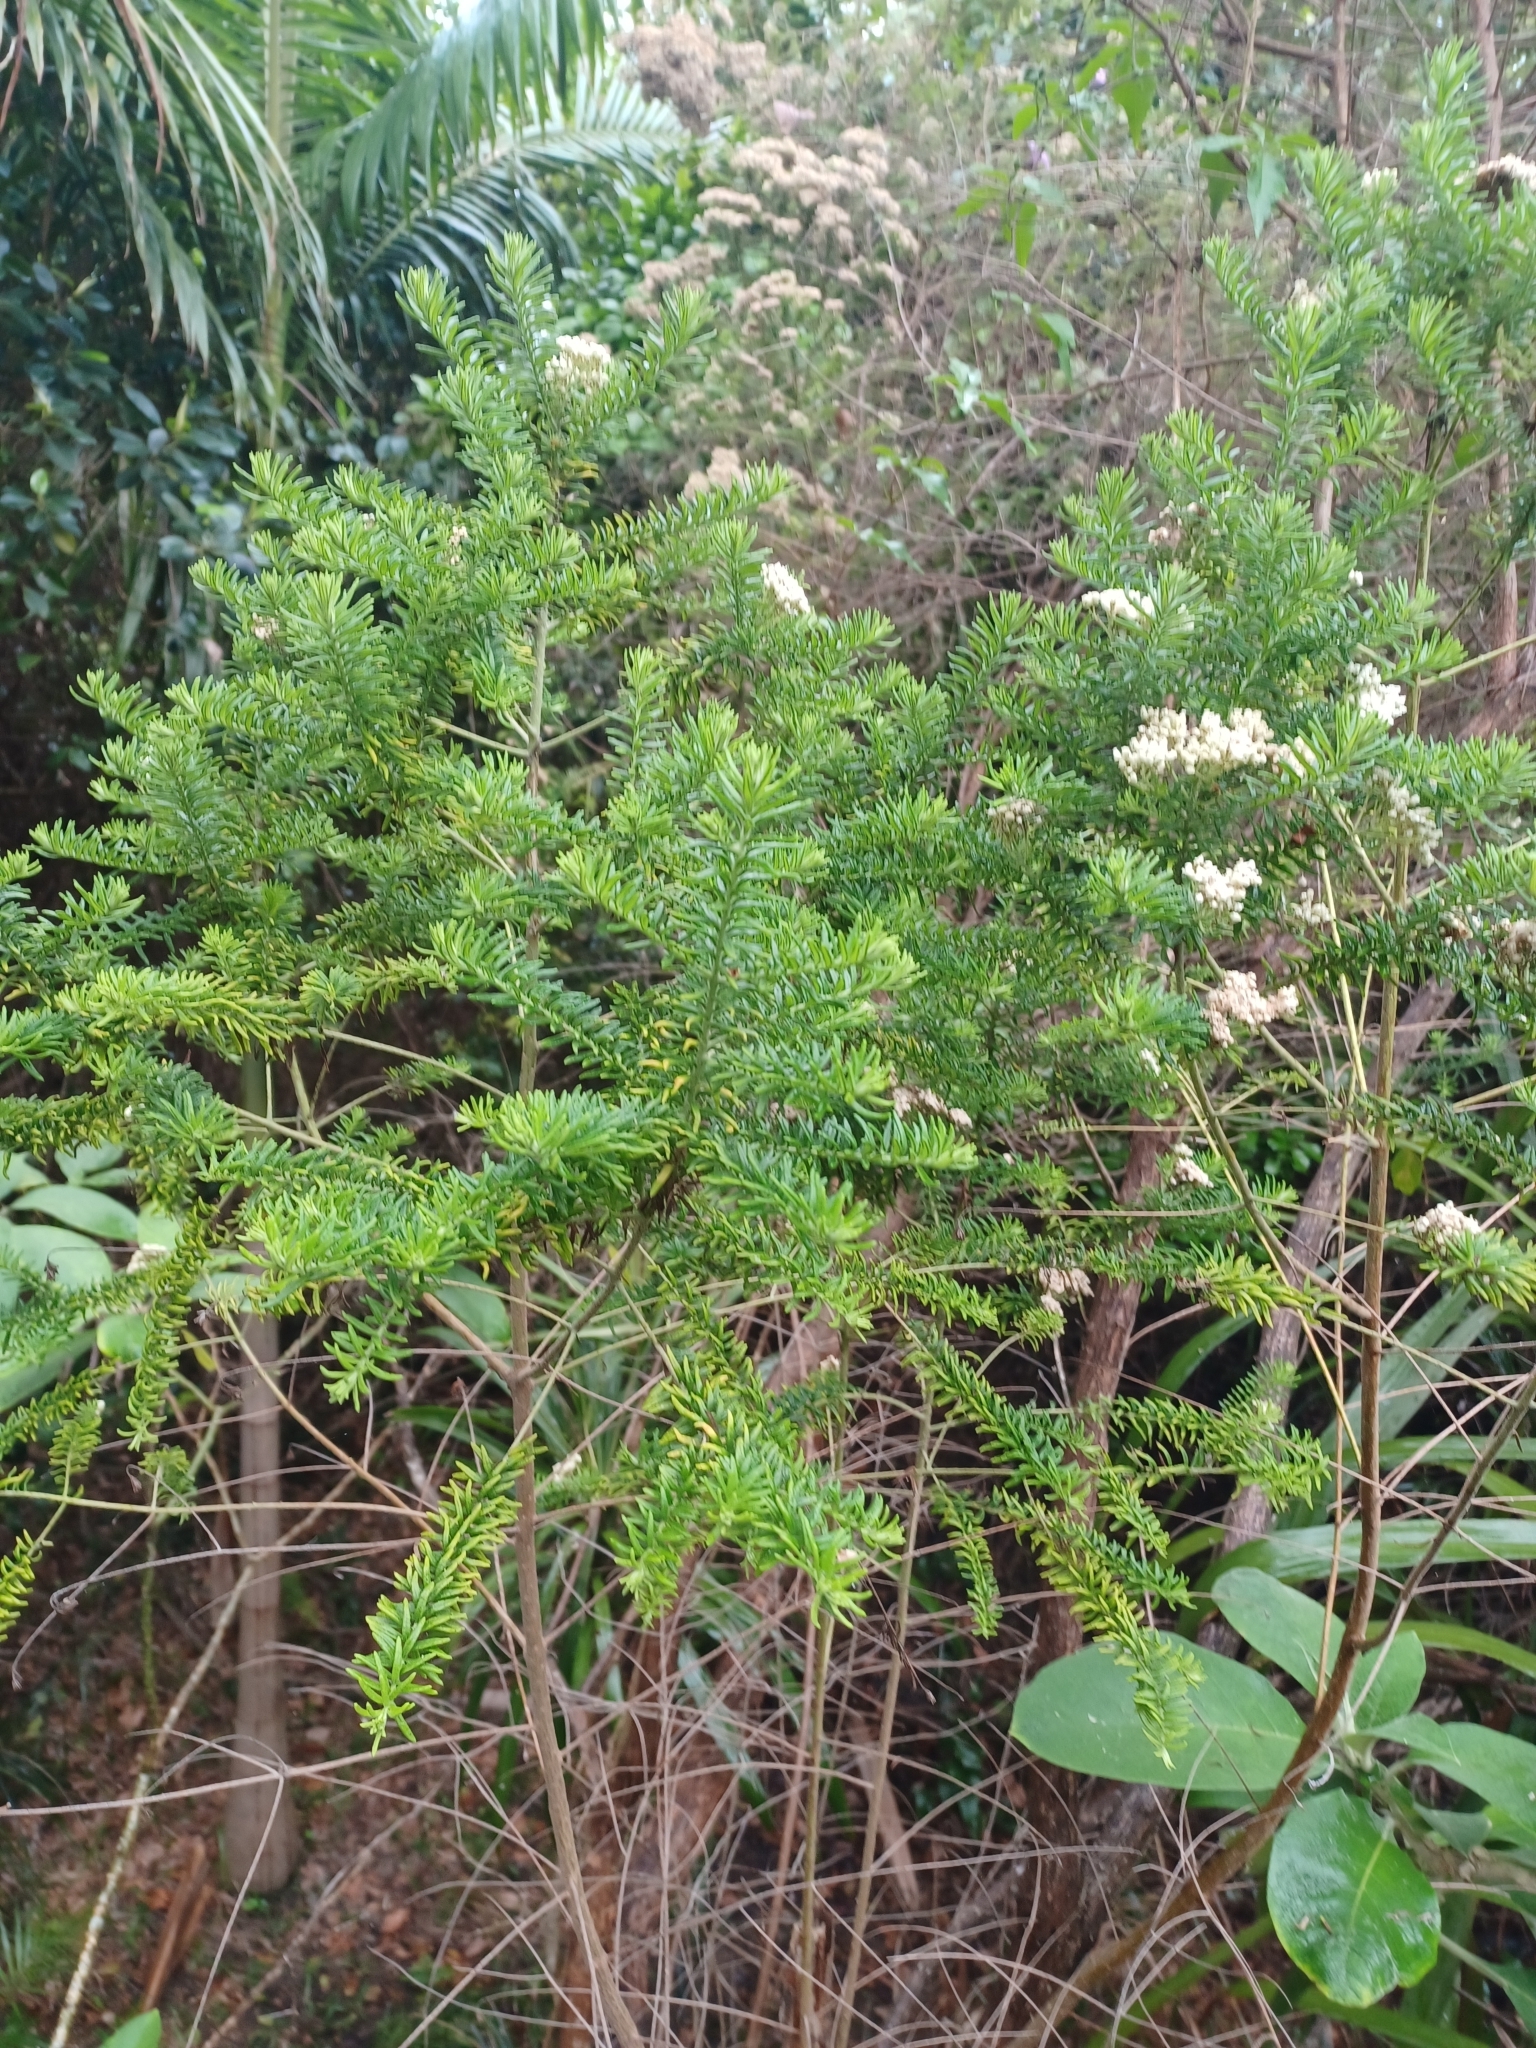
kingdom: Plantae
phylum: Tracheophyta
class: Magnoliopsida
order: Asterales
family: Asteraceae
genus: Ozothamnus
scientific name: Ozothamnus diosmifolius
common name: White-dogwood
